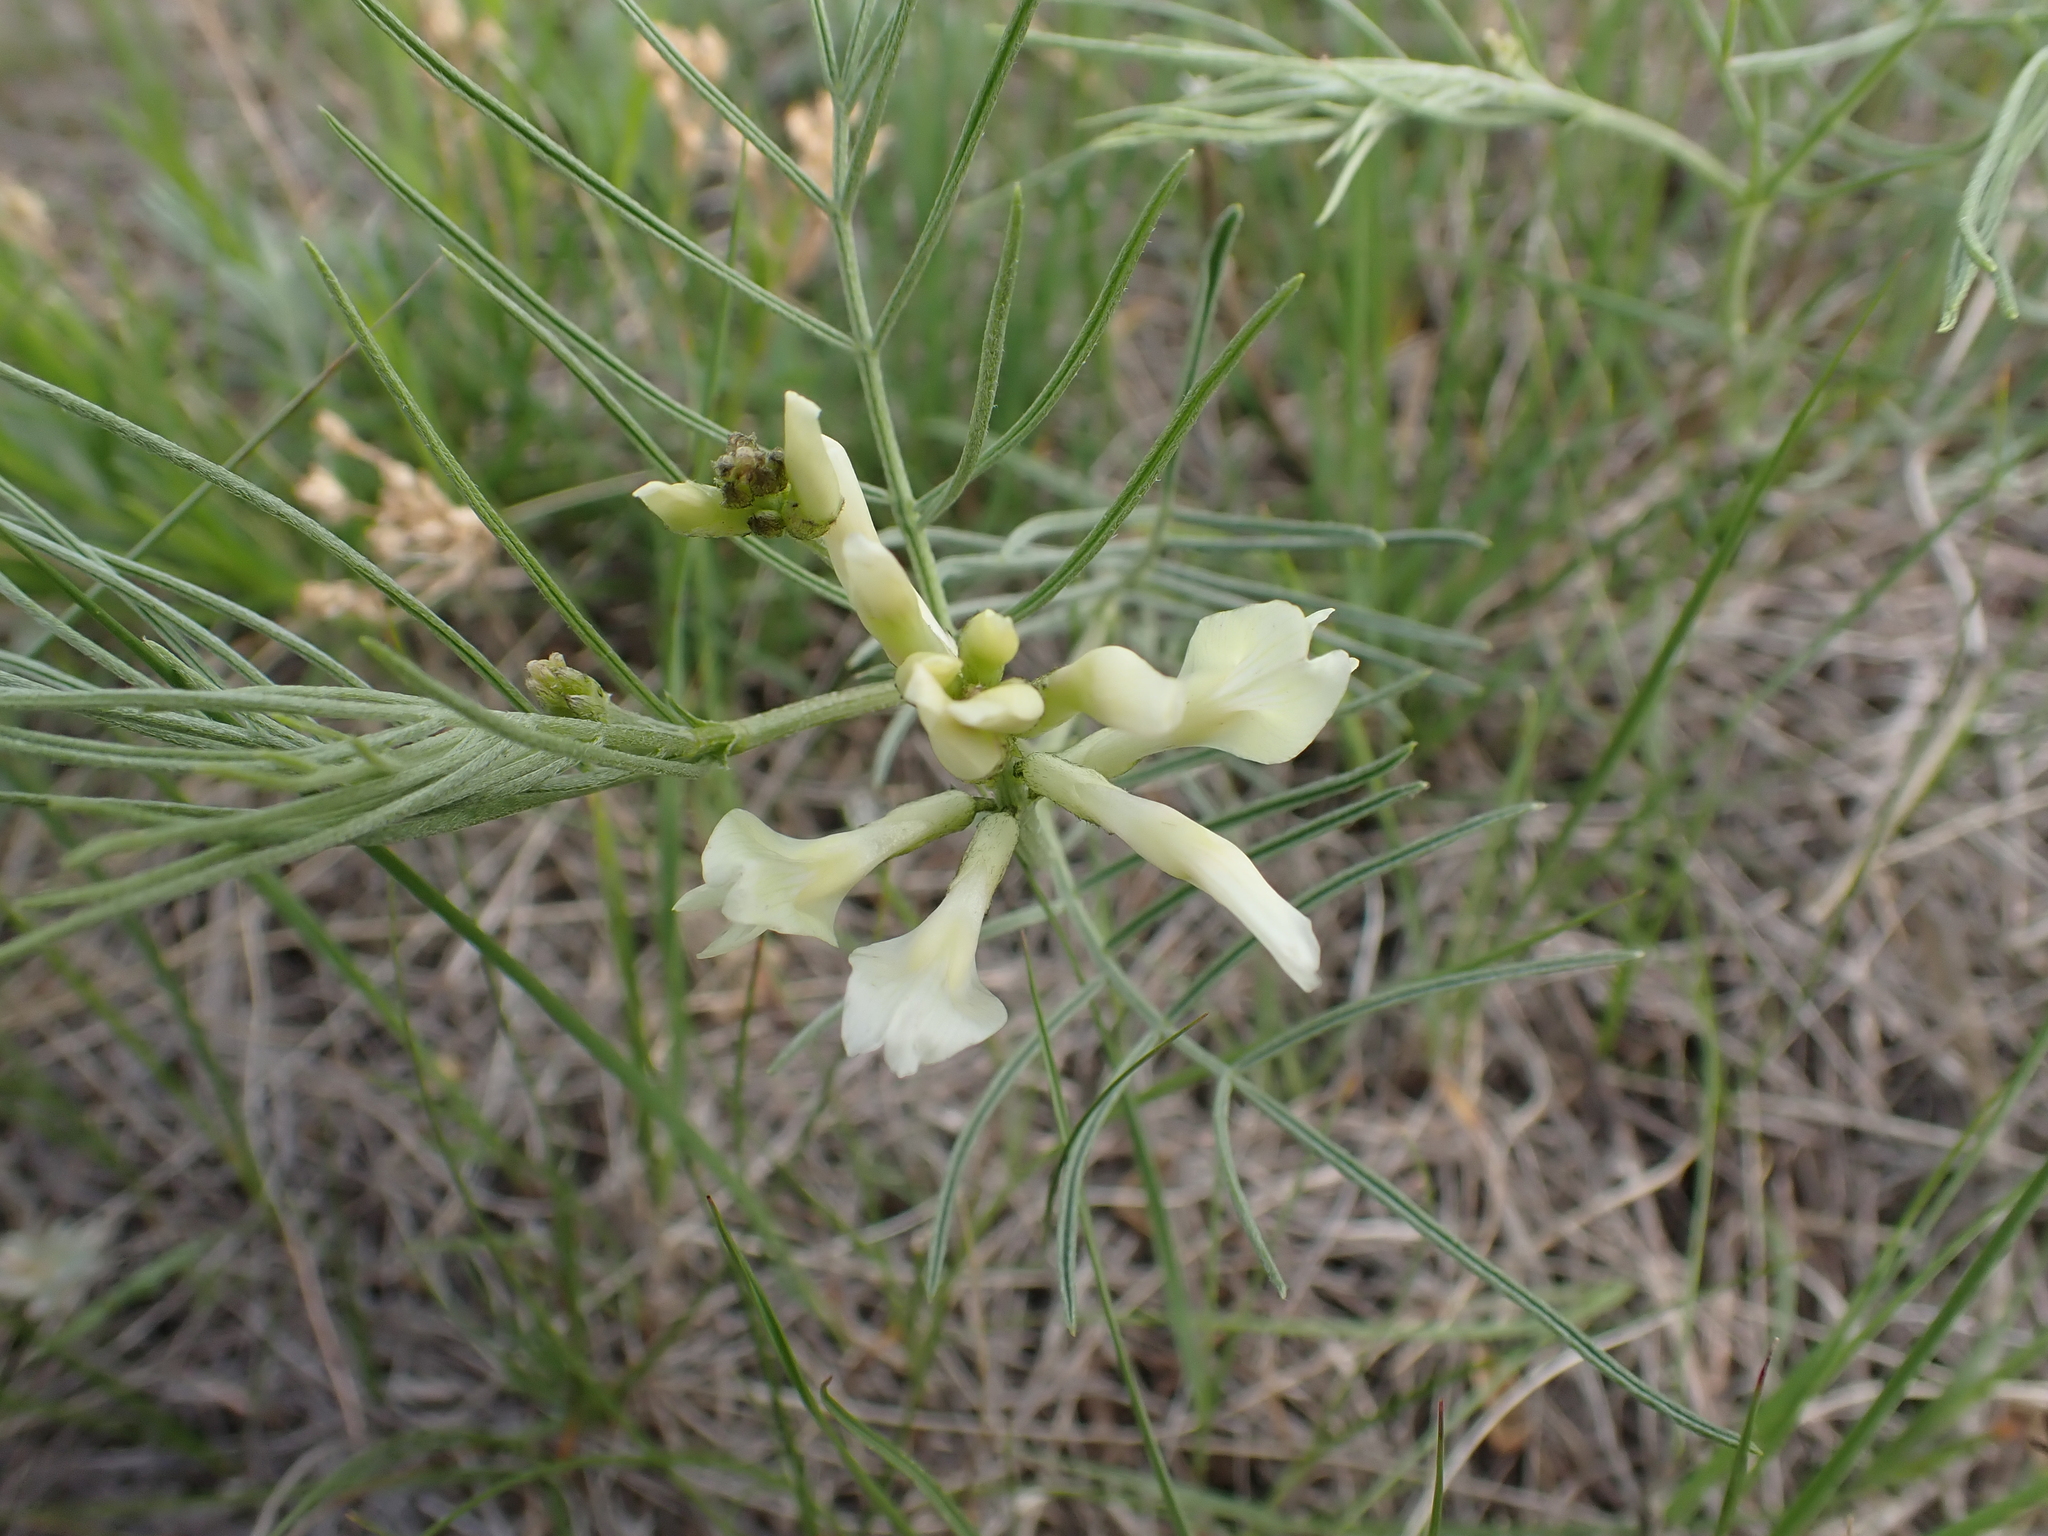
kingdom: Plantae
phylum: Tracheophyta
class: Magnoliopsida
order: Fabales
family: Fabaceae
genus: Astragalus
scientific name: Astragalus pectinatus
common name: Tine-leaf milk-vetch
